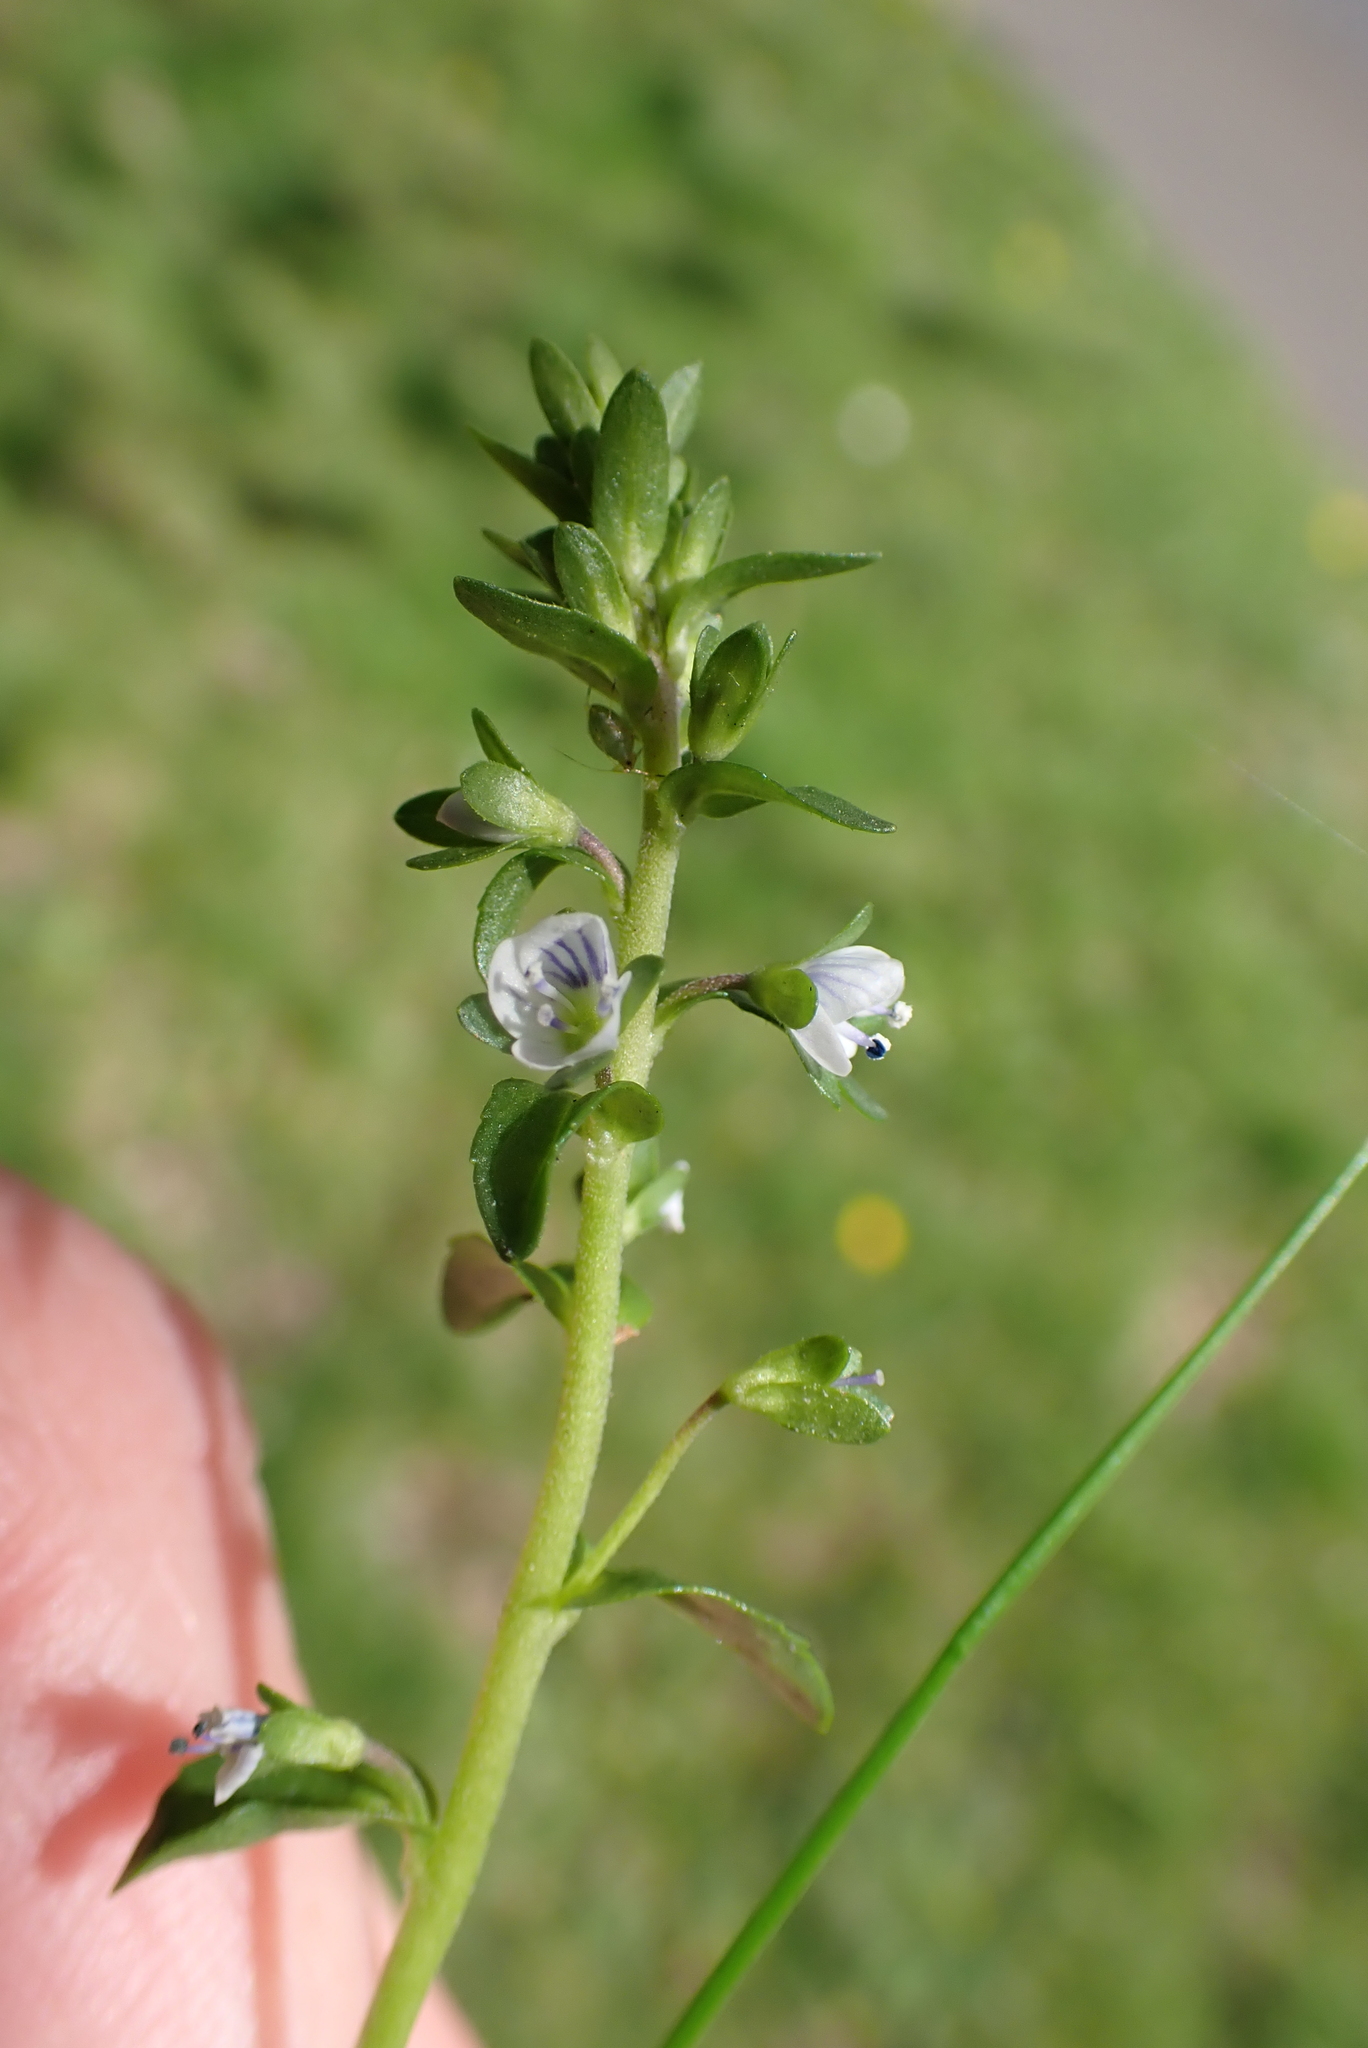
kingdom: Plantae
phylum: Tracheophyta
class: Magnoliopsida
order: Lamiales
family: Plantaginaceae
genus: Veronica
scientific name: Veronica serpyllifolia
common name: Thyme-leaved speedwell
